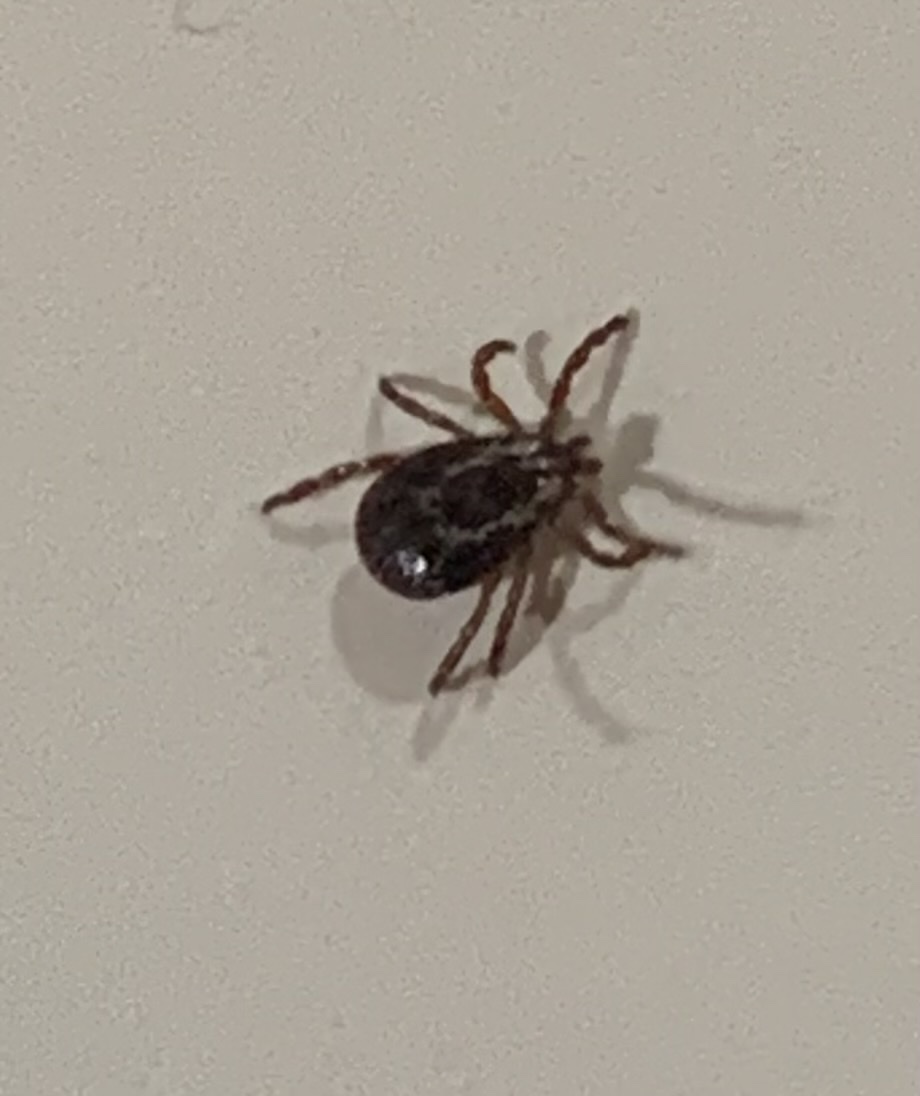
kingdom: Animalia
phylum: Arthropoda
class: Arachnida
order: Ixodida
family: Ixodidae
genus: Dermacentor
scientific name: Dermacentor variabilis
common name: American dog tick
